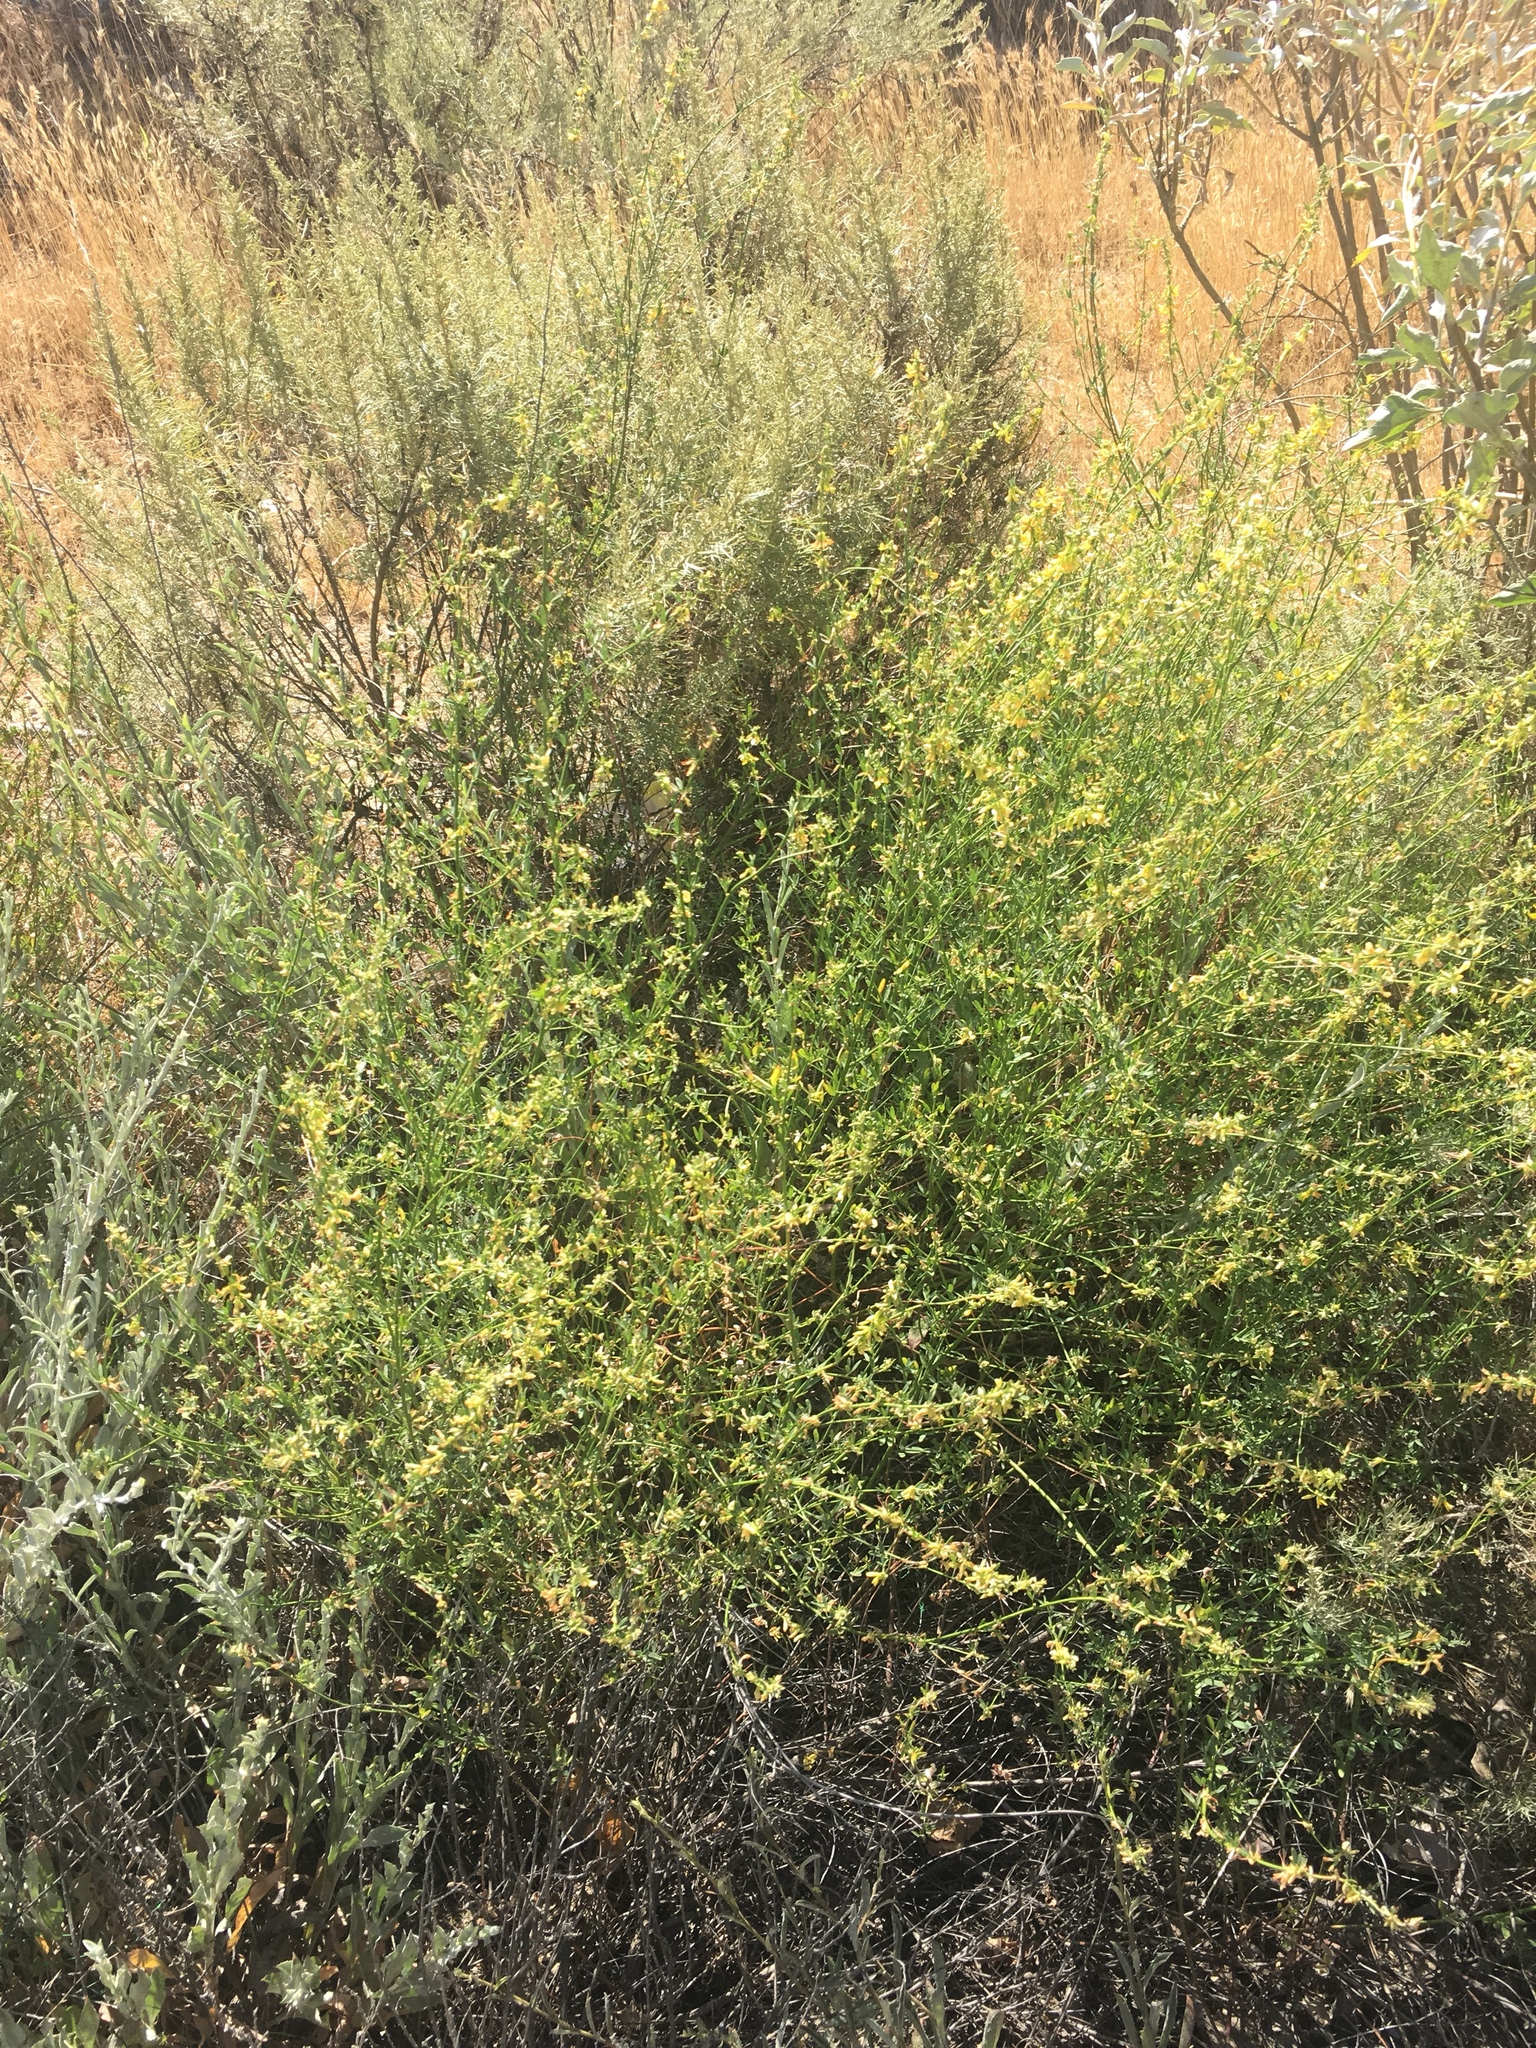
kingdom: Plantae
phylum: Tracheophyta
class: Magnoliopsida
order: Fabales
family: Fabaceae
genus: Acmispon
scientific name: Acmispon glaber
